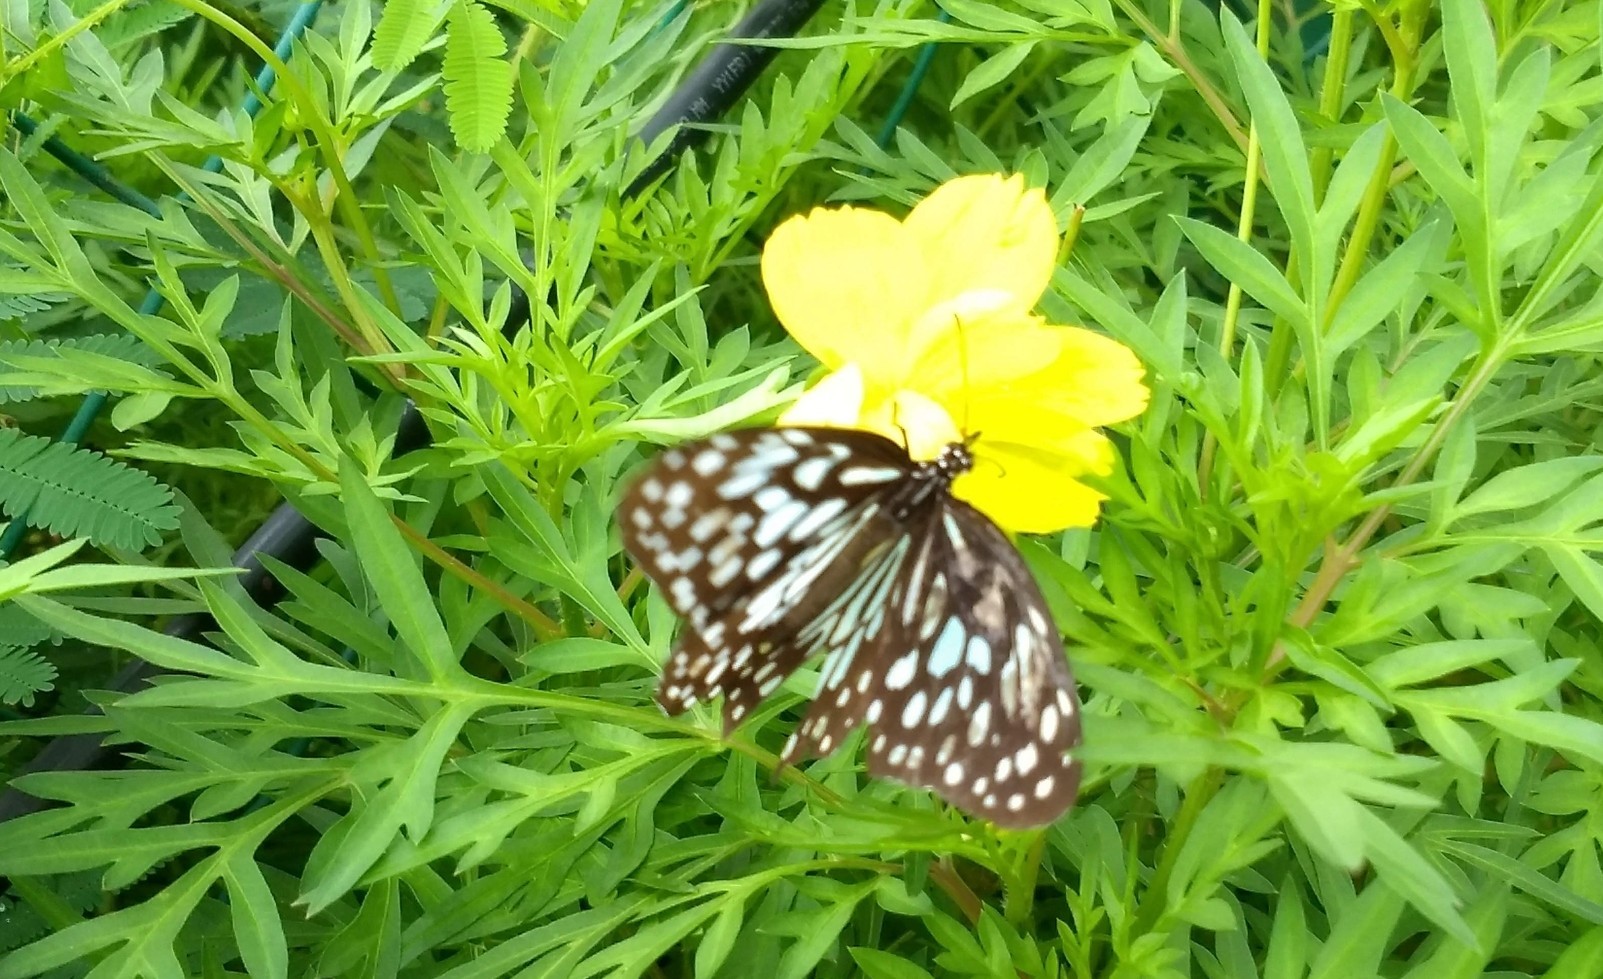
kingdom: Animalia
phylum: Arthropoda
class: Insecta
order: Lepidoptera
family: Nymphalidae
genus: Tirumala
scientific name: Tirumala limniace
